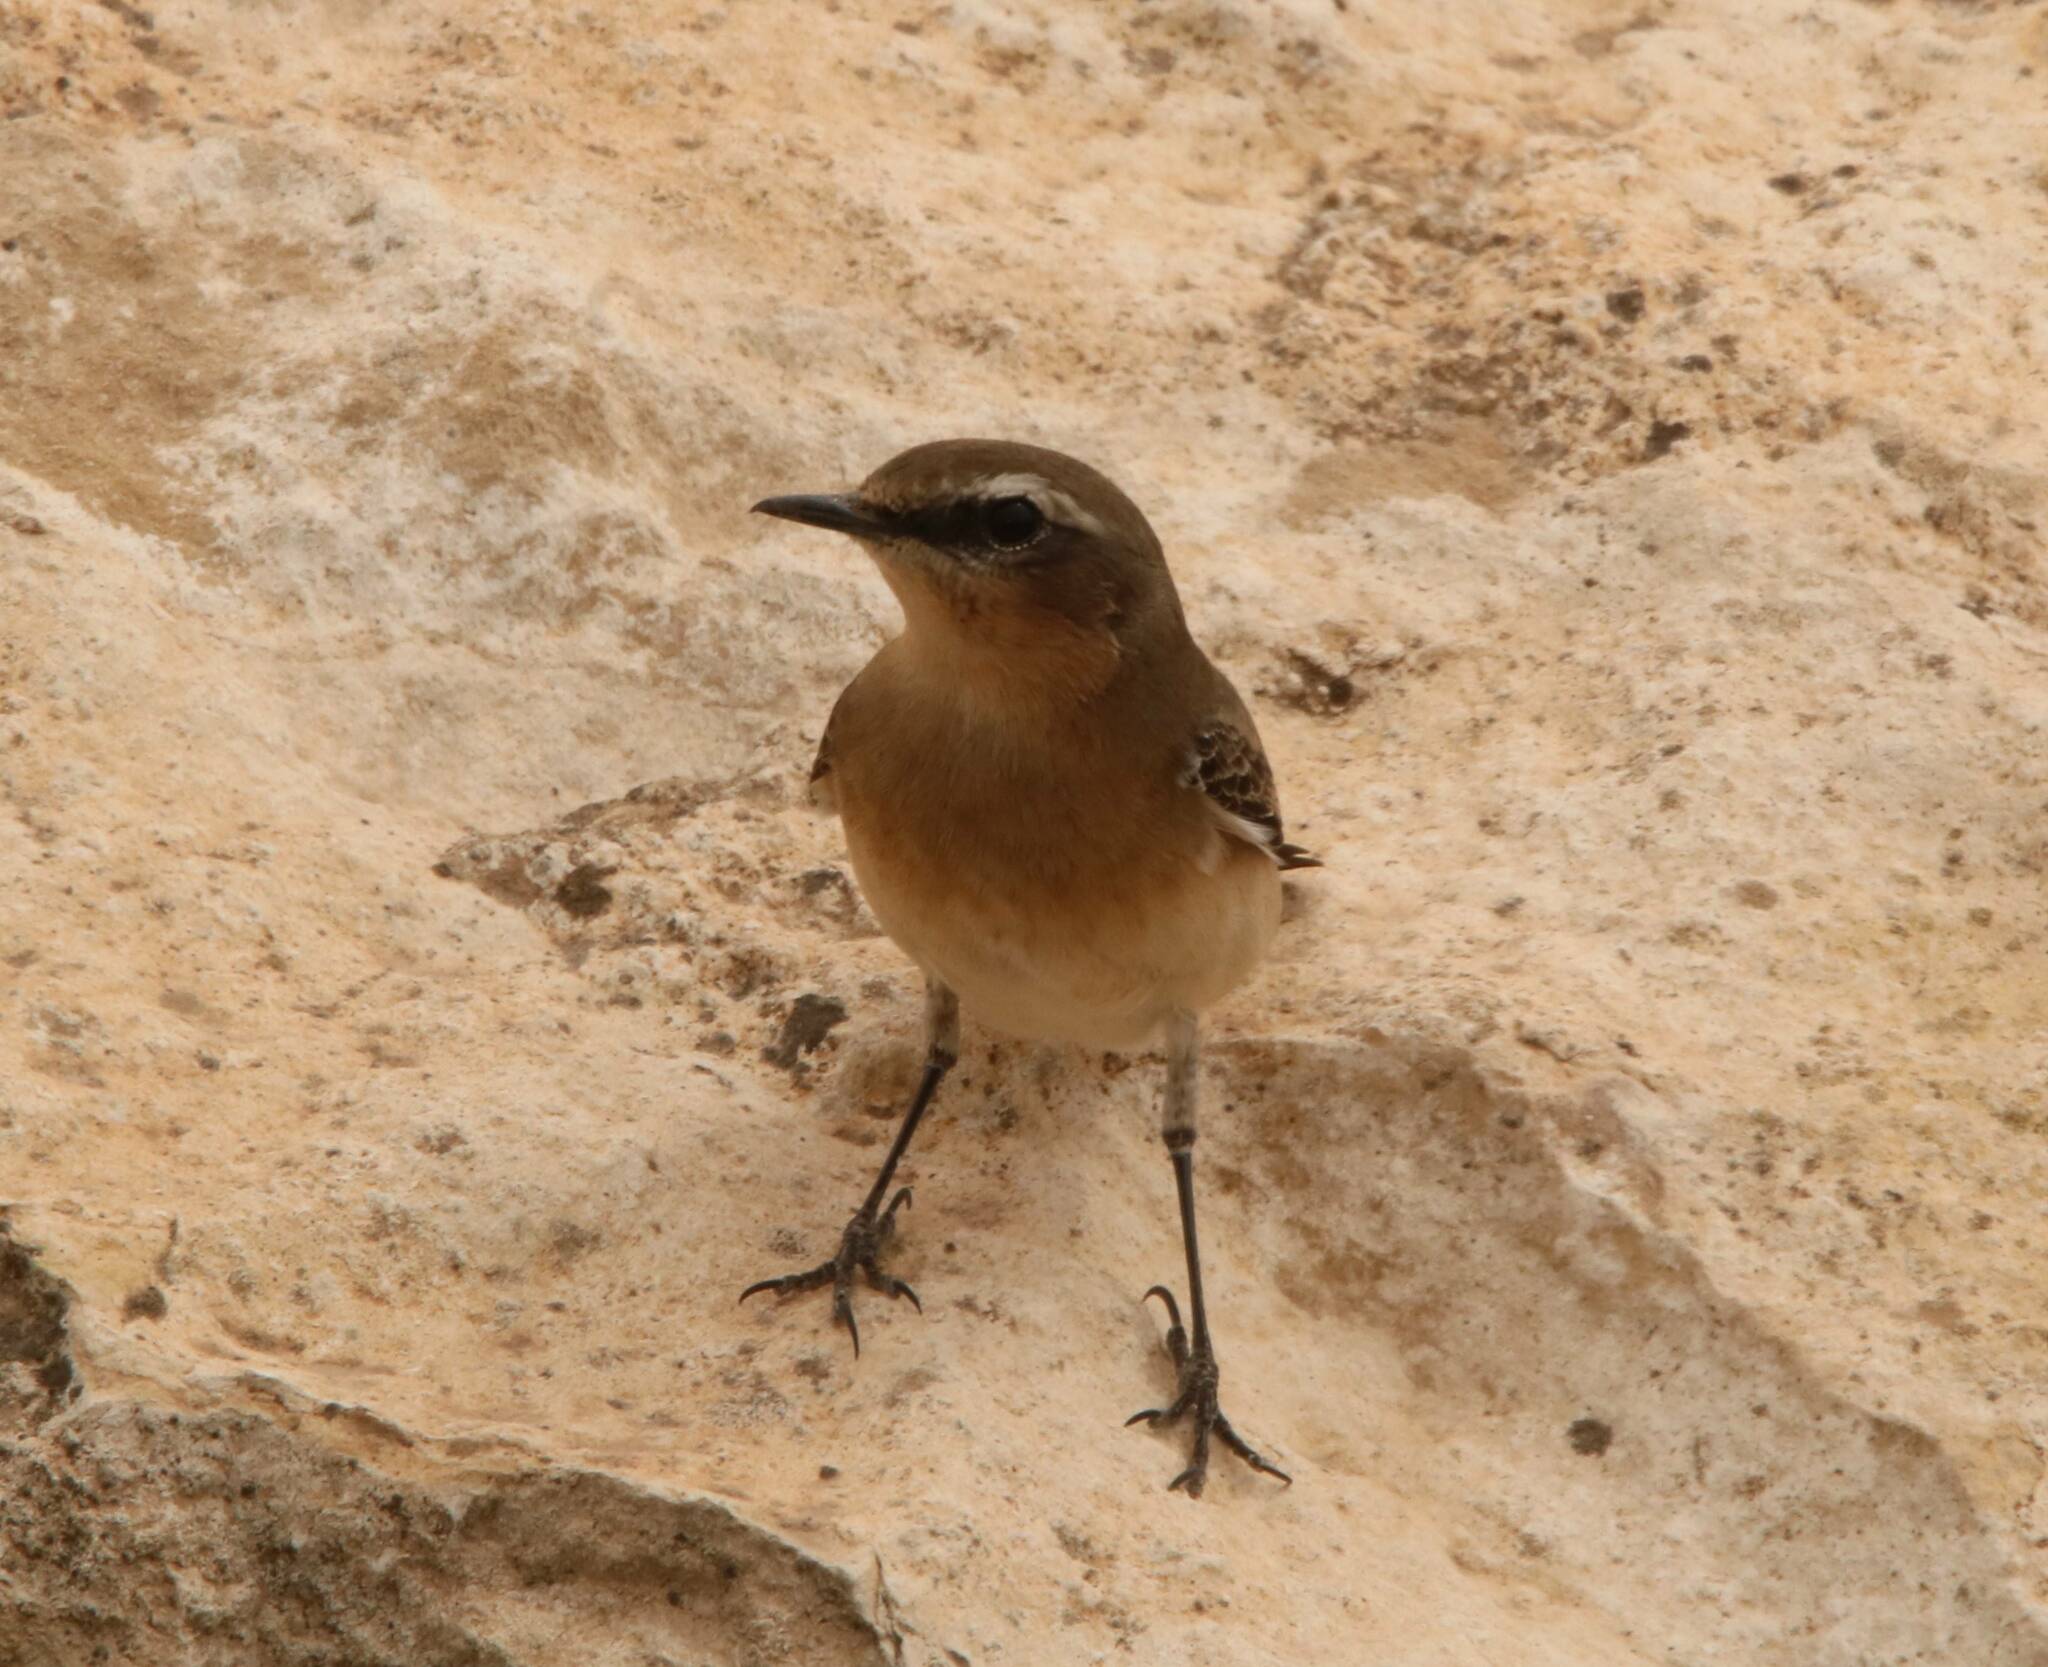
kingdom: Animalia
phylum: Chordata
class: Aves
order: Passeriformes
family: Muscicapidae
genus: Oenanthe
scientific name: Oenanthe oenanthe
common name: Northern wheatear
